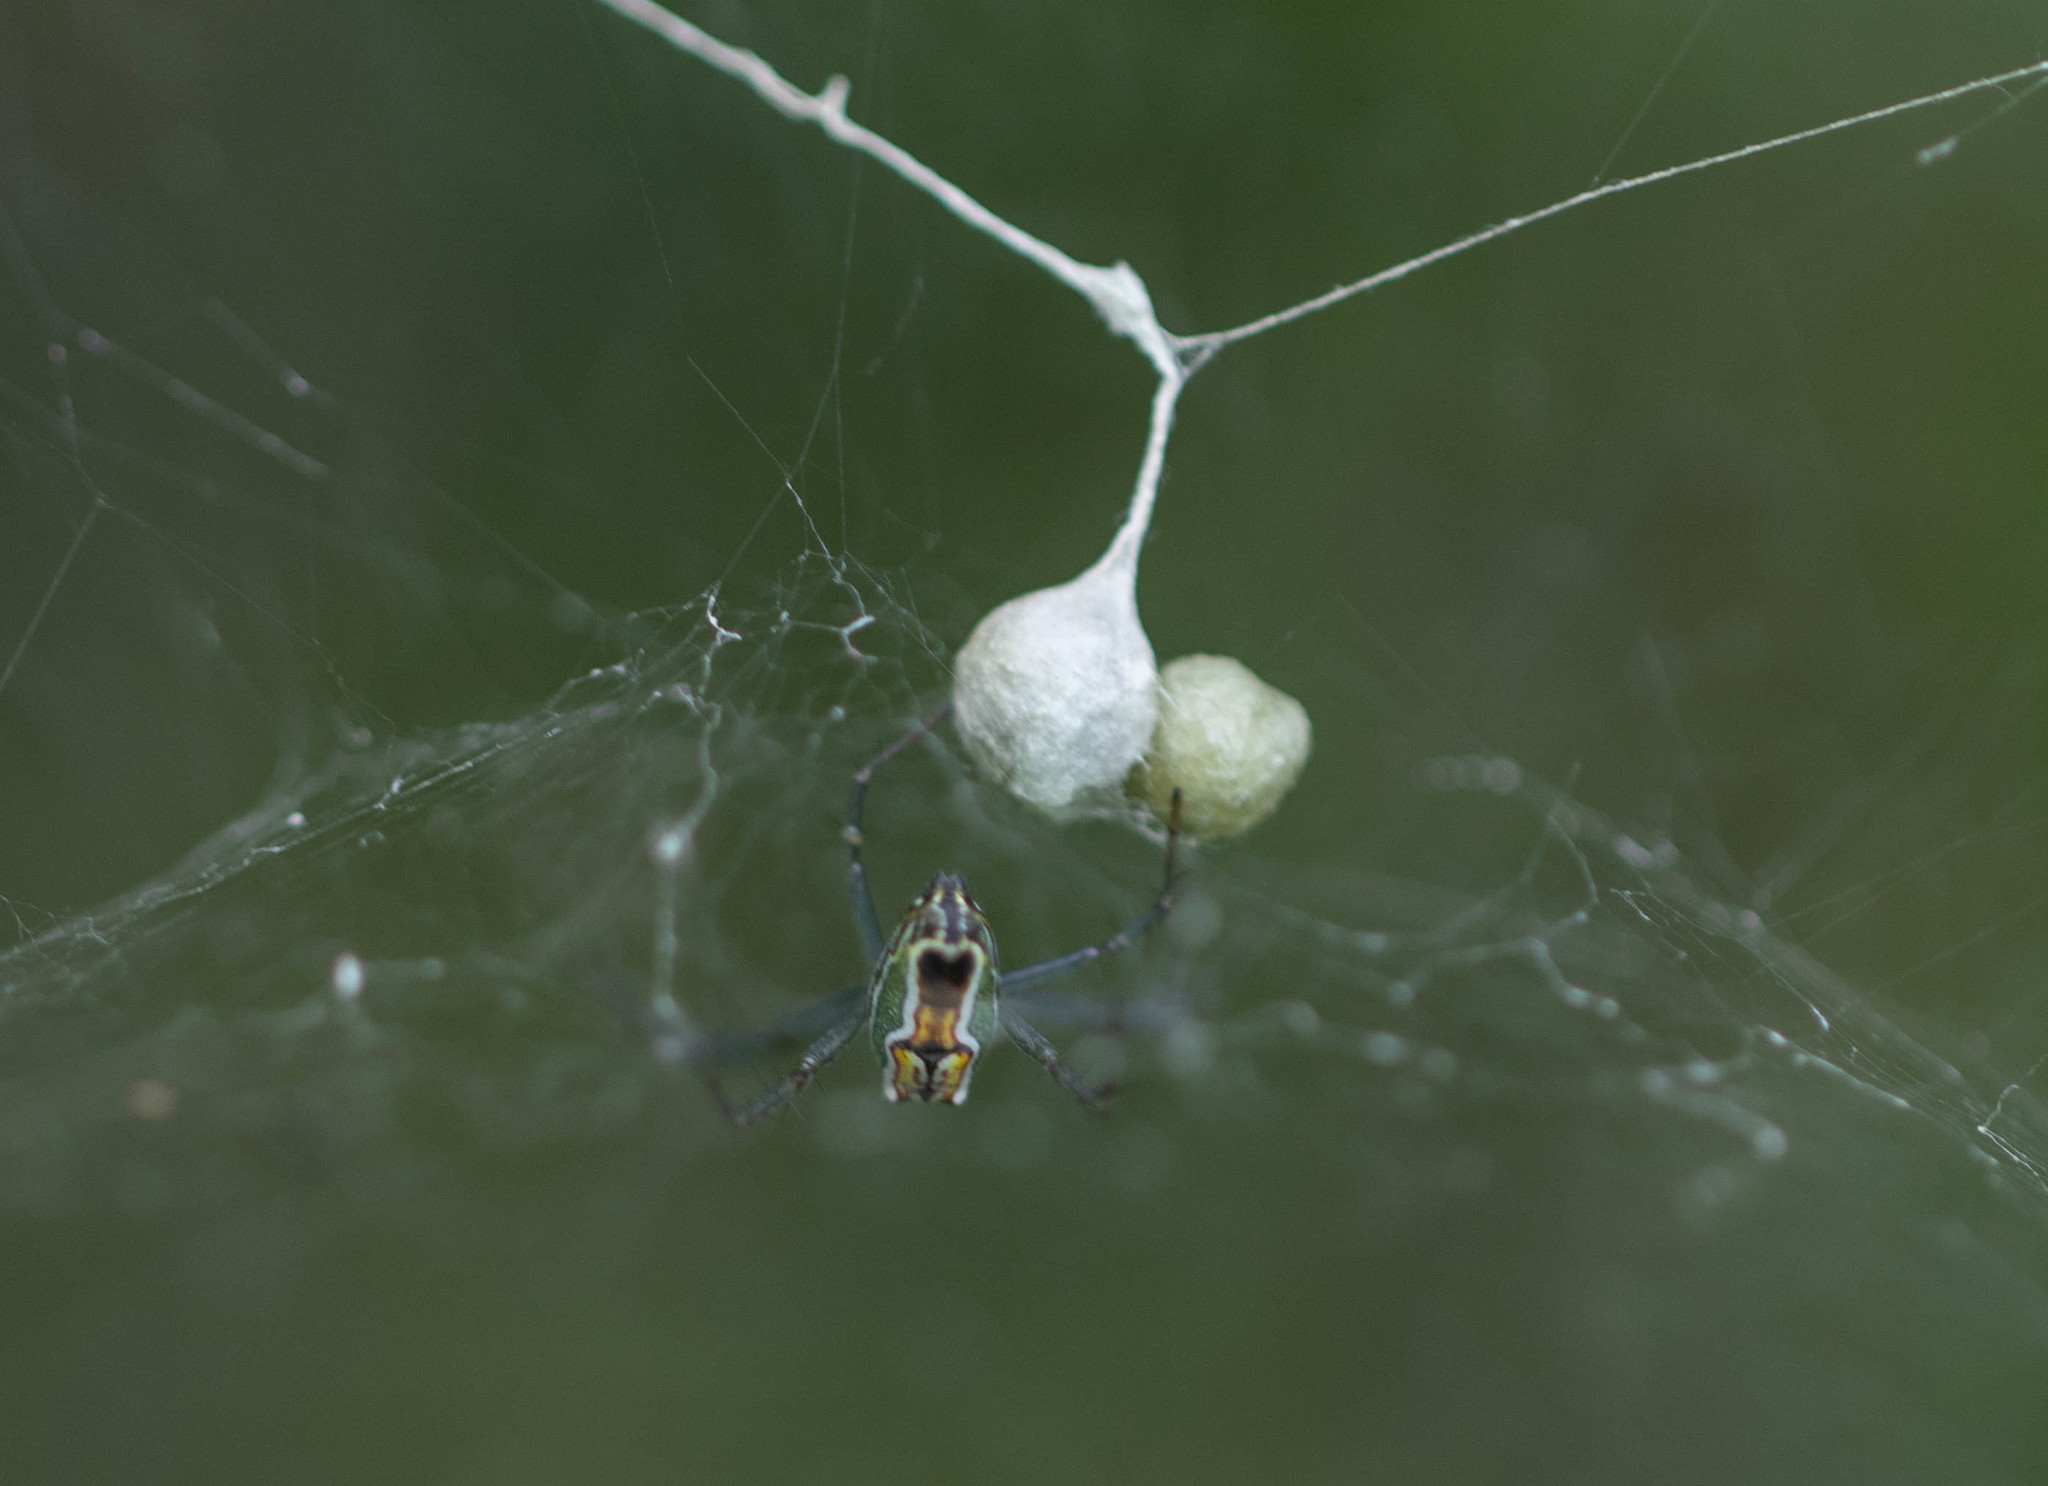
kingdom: Animalia
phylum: Arthropoda
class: Arachnida
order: Araneae
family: Araneidae
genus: Mecynogea
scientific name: Mecynogea lemniscata
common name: Orb weavers
